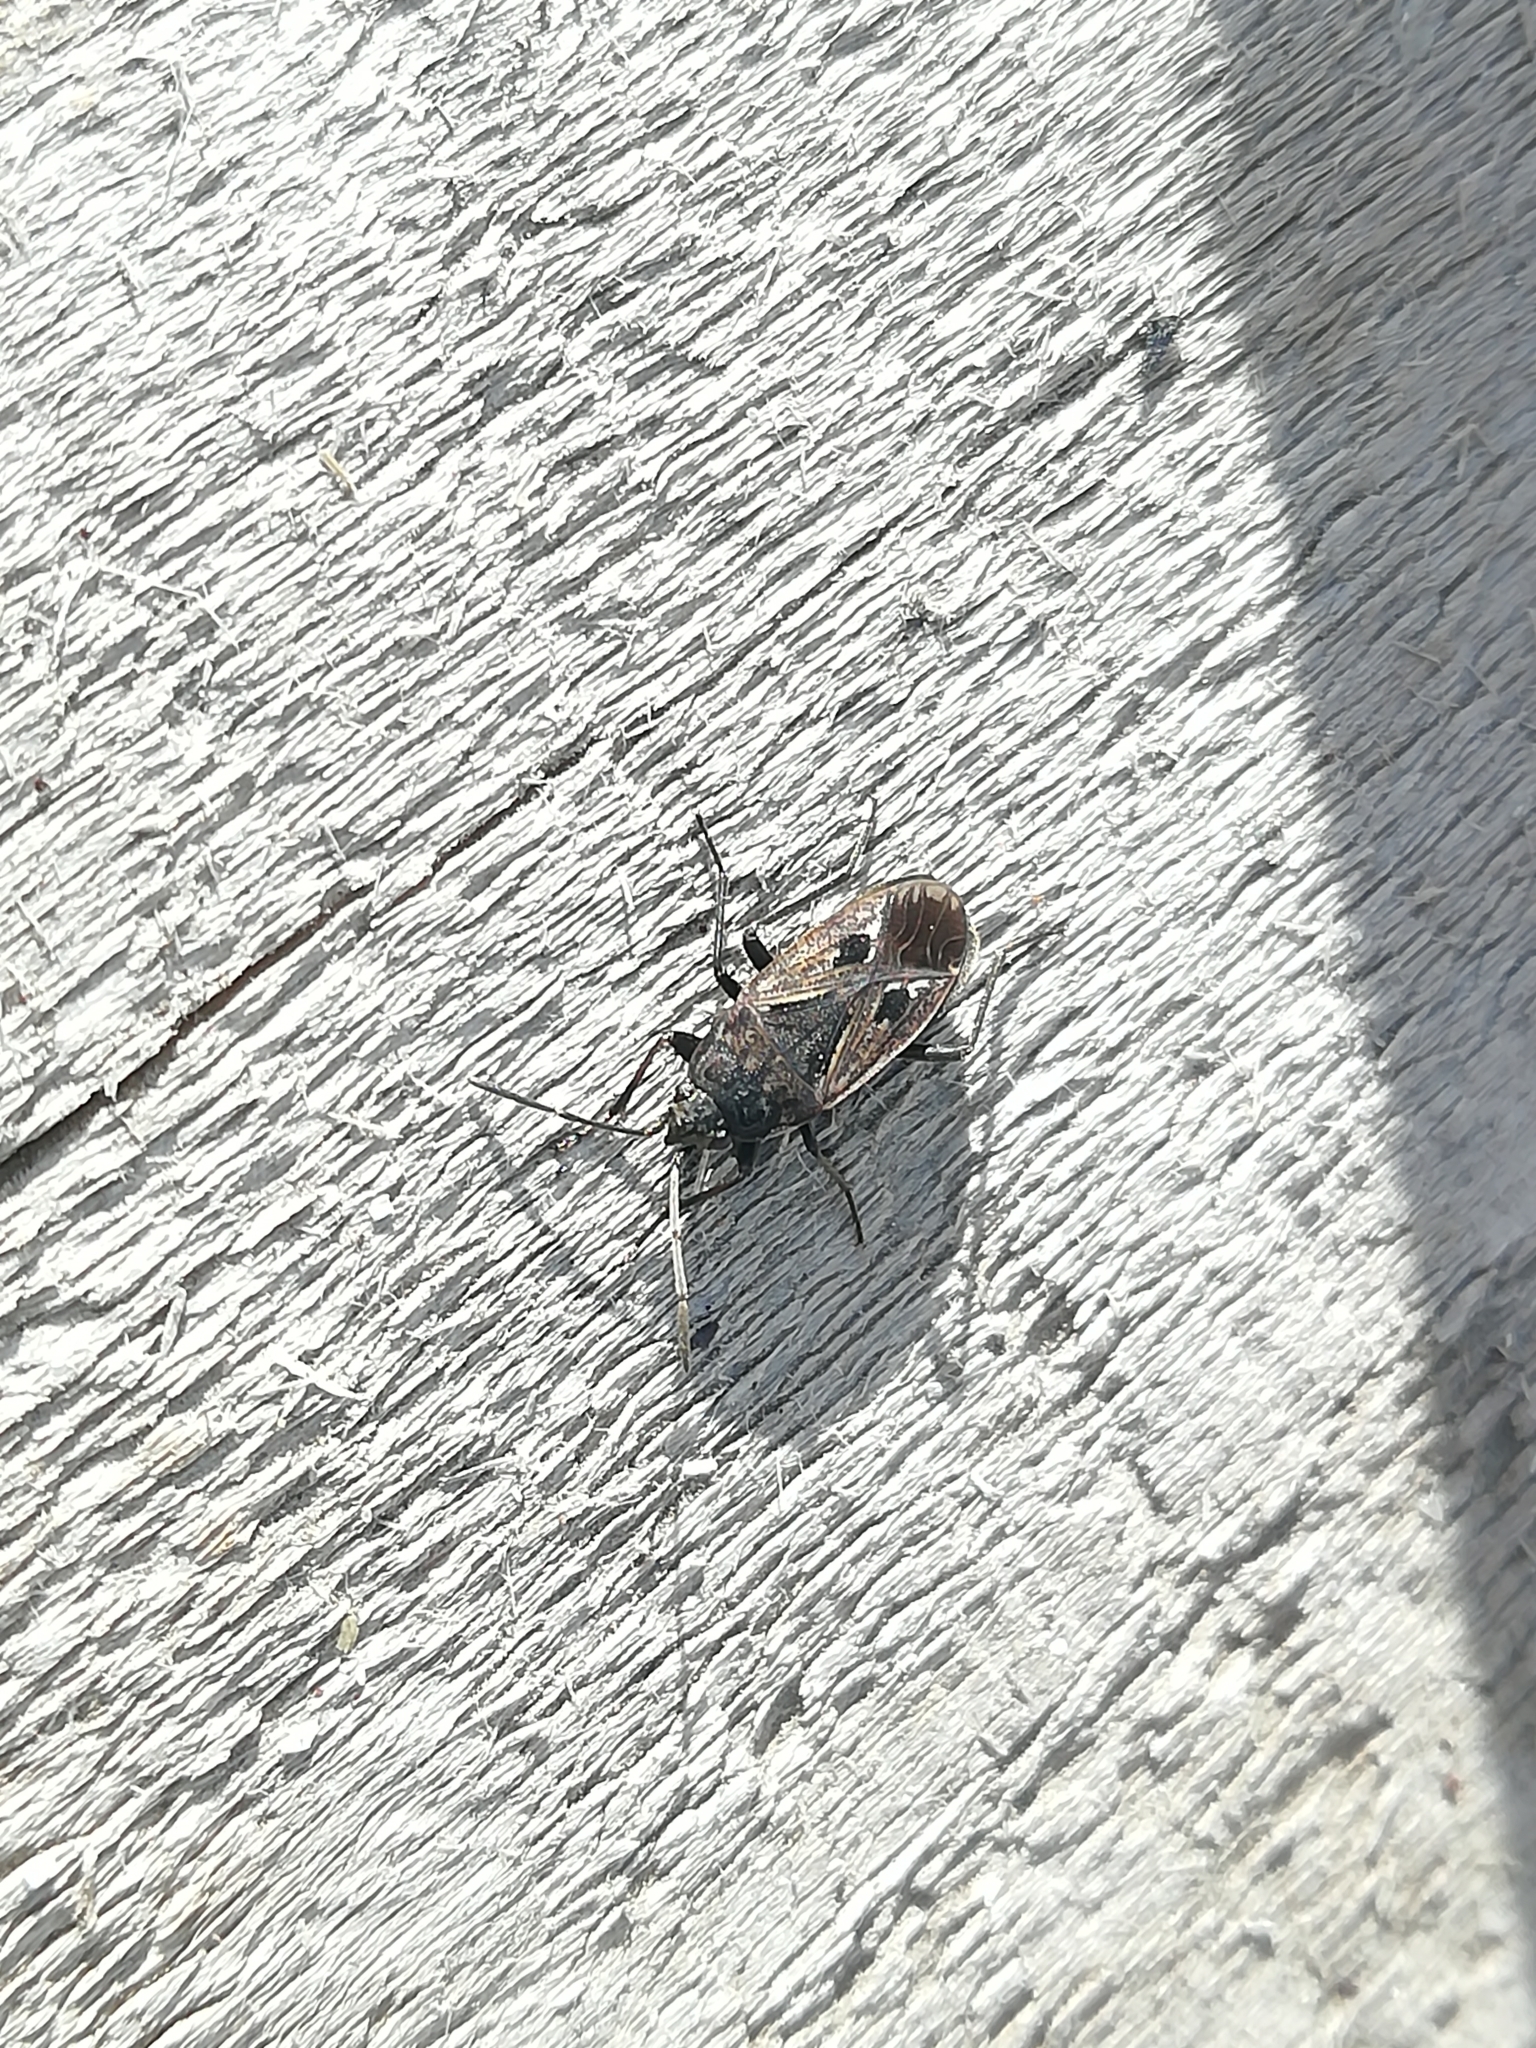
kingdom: Animalia
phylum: Arthropoda
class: Insecta
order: Hemiptera
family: Rhyparochromidae
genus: Rhyparochromus
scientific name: Rhyparochromus pini
